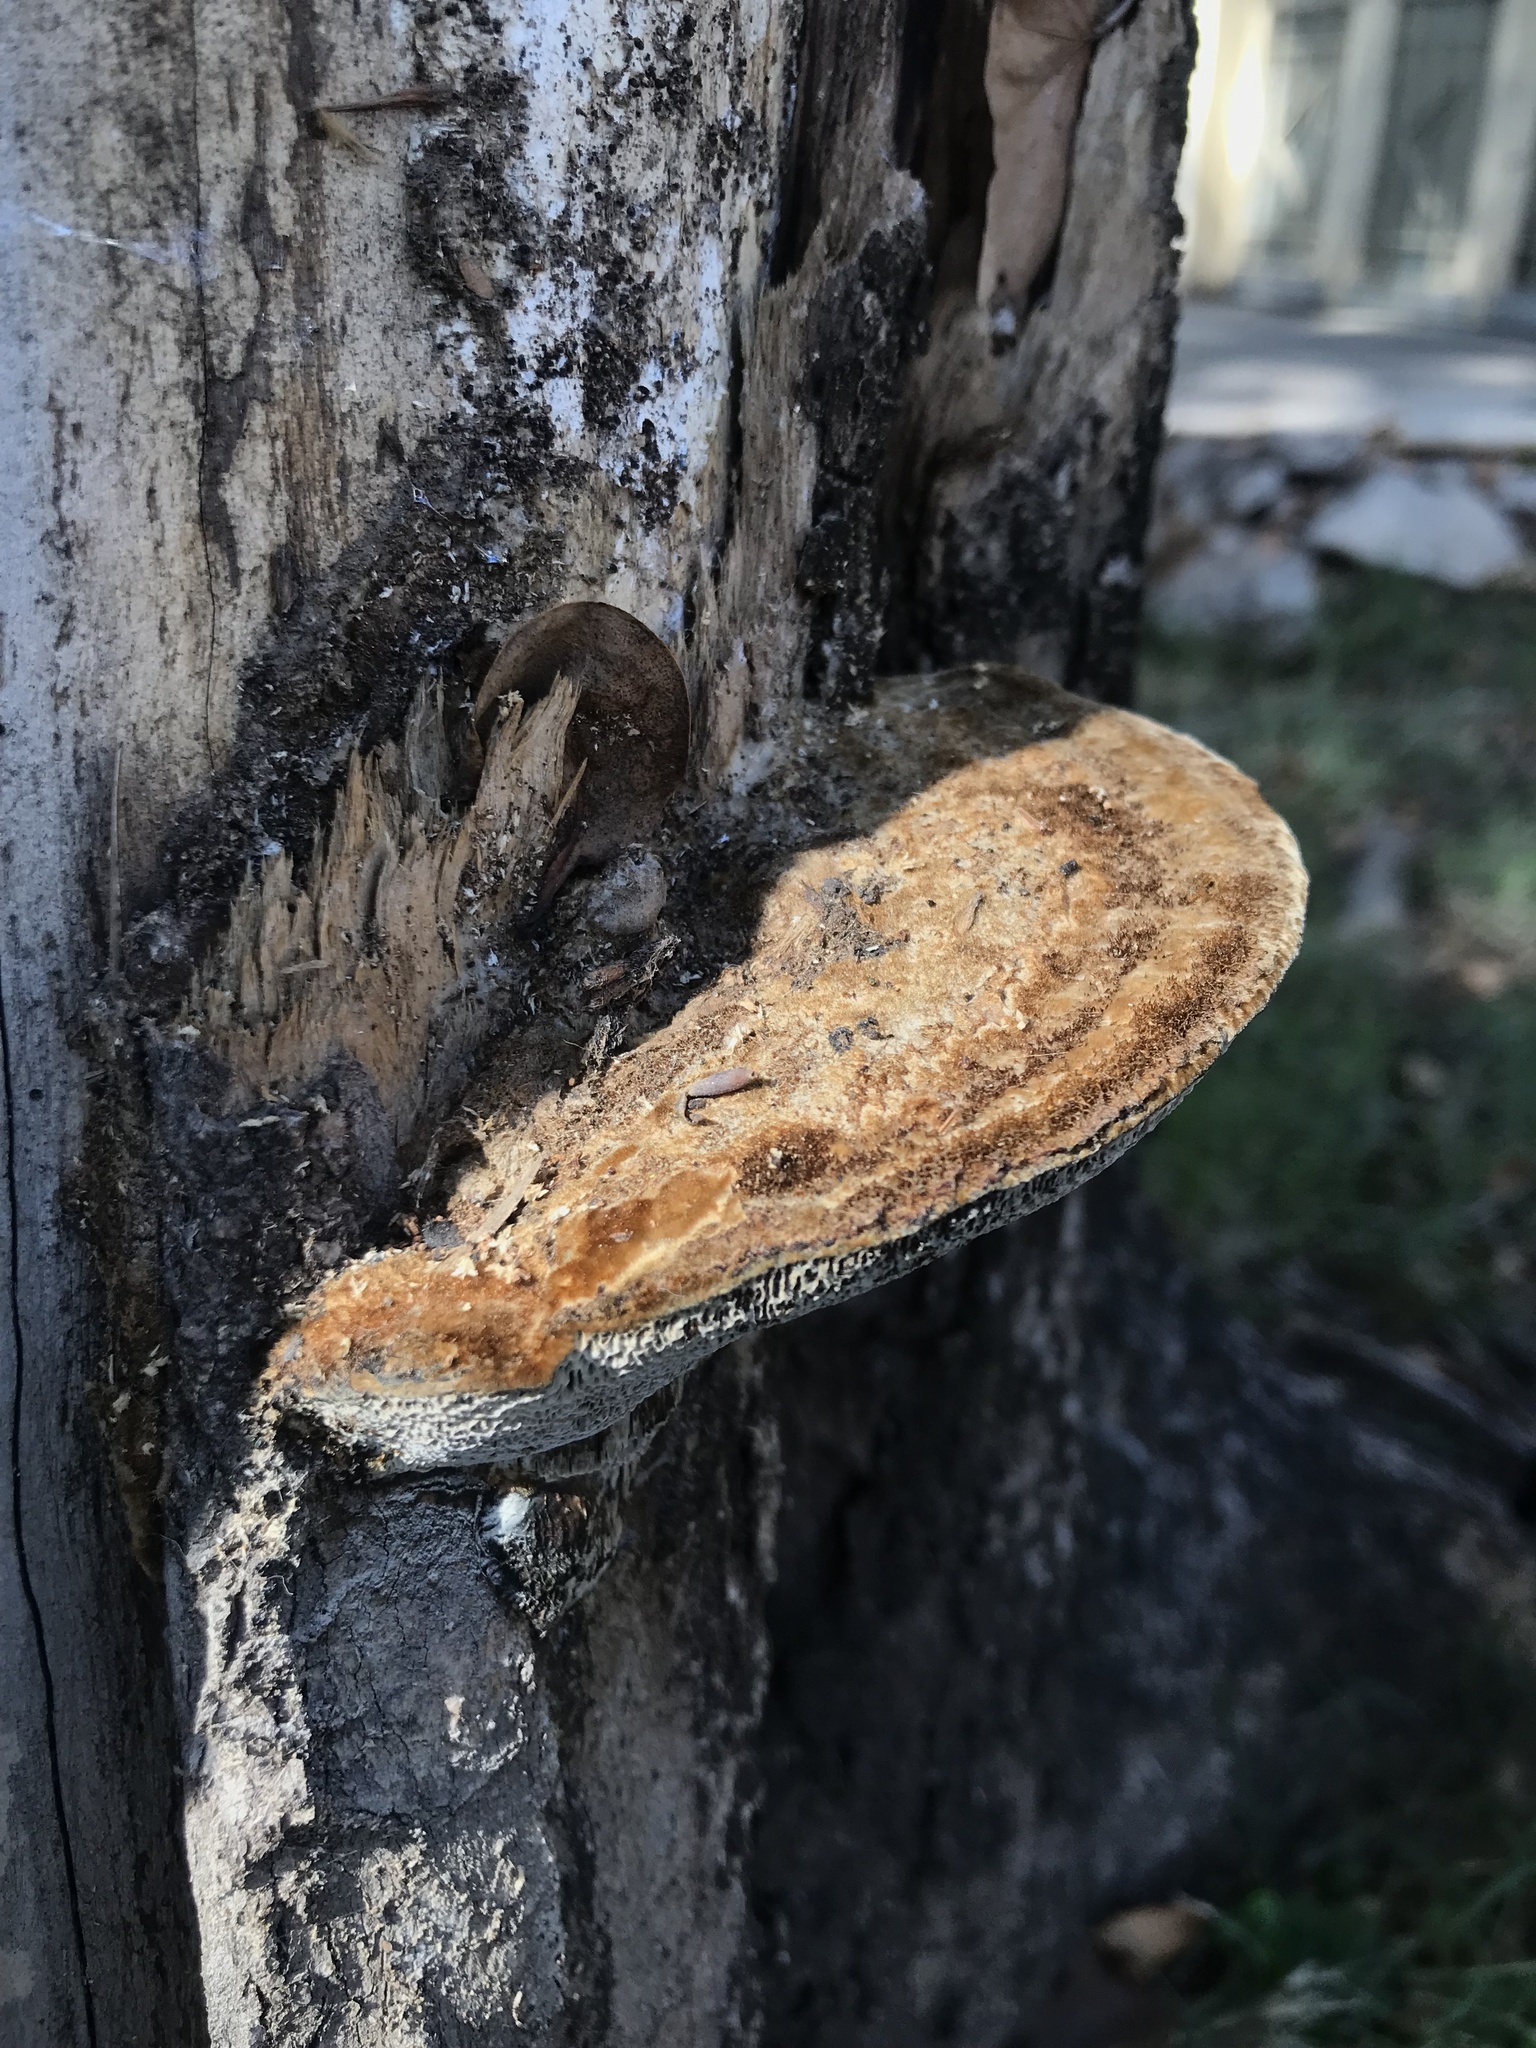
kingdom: Fungi
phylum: Basidiomycota
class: Agaricomycetes
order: Polyporales
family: Polyporaceae
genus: Coriolopsis
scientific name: Coriolopsis gallica
